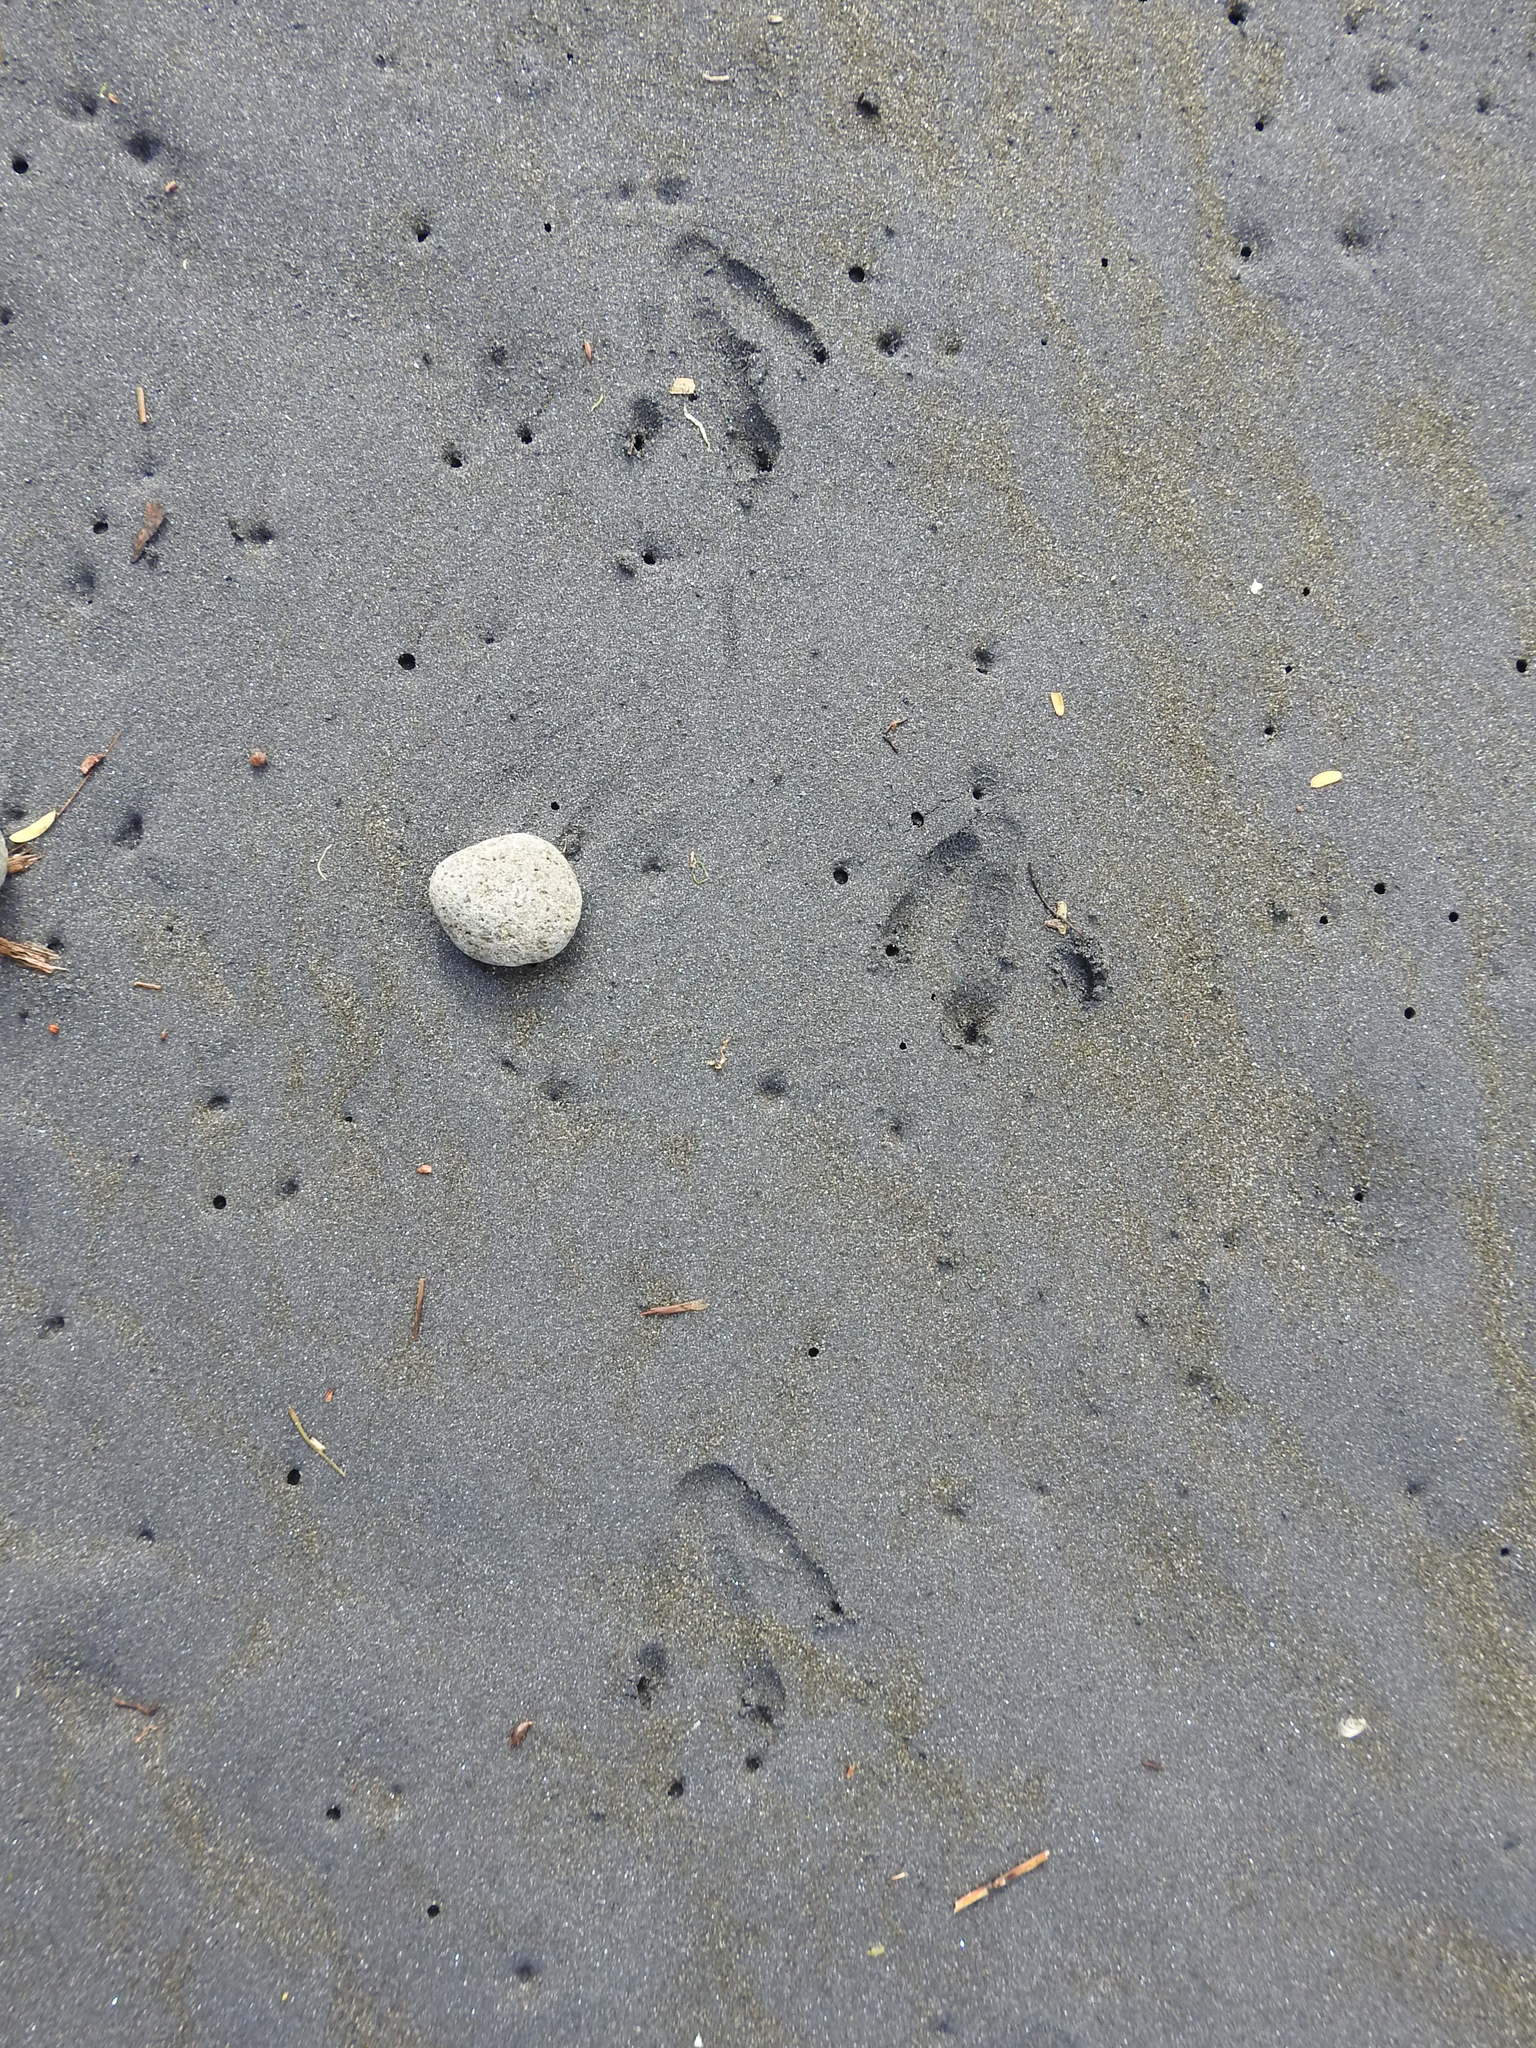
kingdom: Animalia
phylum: Chordata
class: Aves
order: Sphenisciformes
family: Spheniscidae
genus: Eudyptula
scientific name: Eudyptula minor
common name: Little penguin
